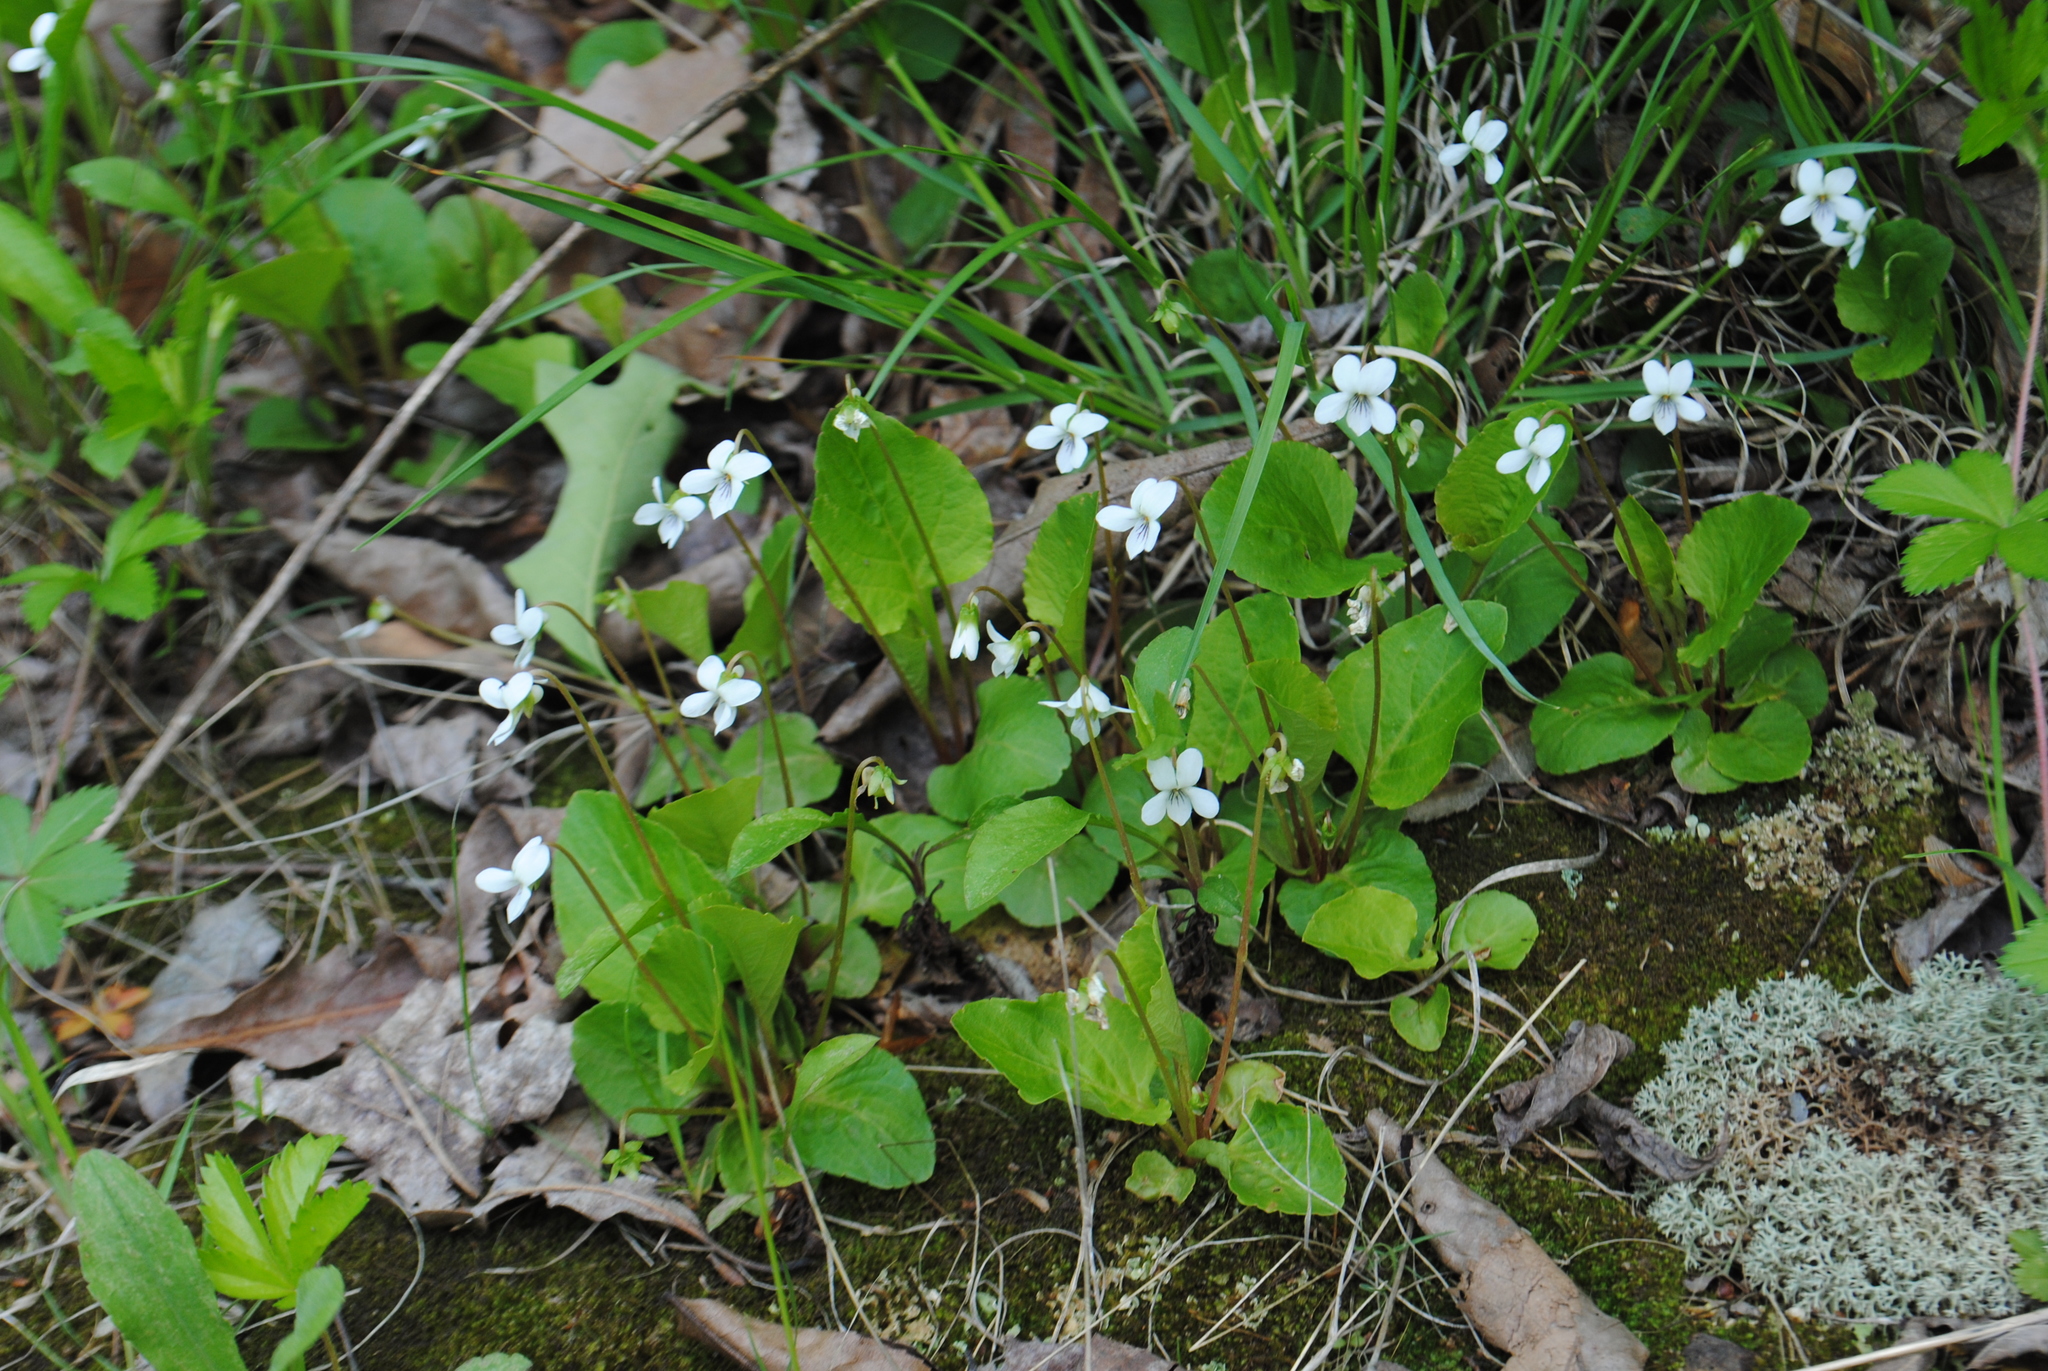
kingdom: Plantae
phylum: Tracheophyta
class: Magnoliopsida
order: Malpighiales
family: Violaceae
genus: Viola
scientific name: Viola primulifolia
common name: Primrose-leaf violet
